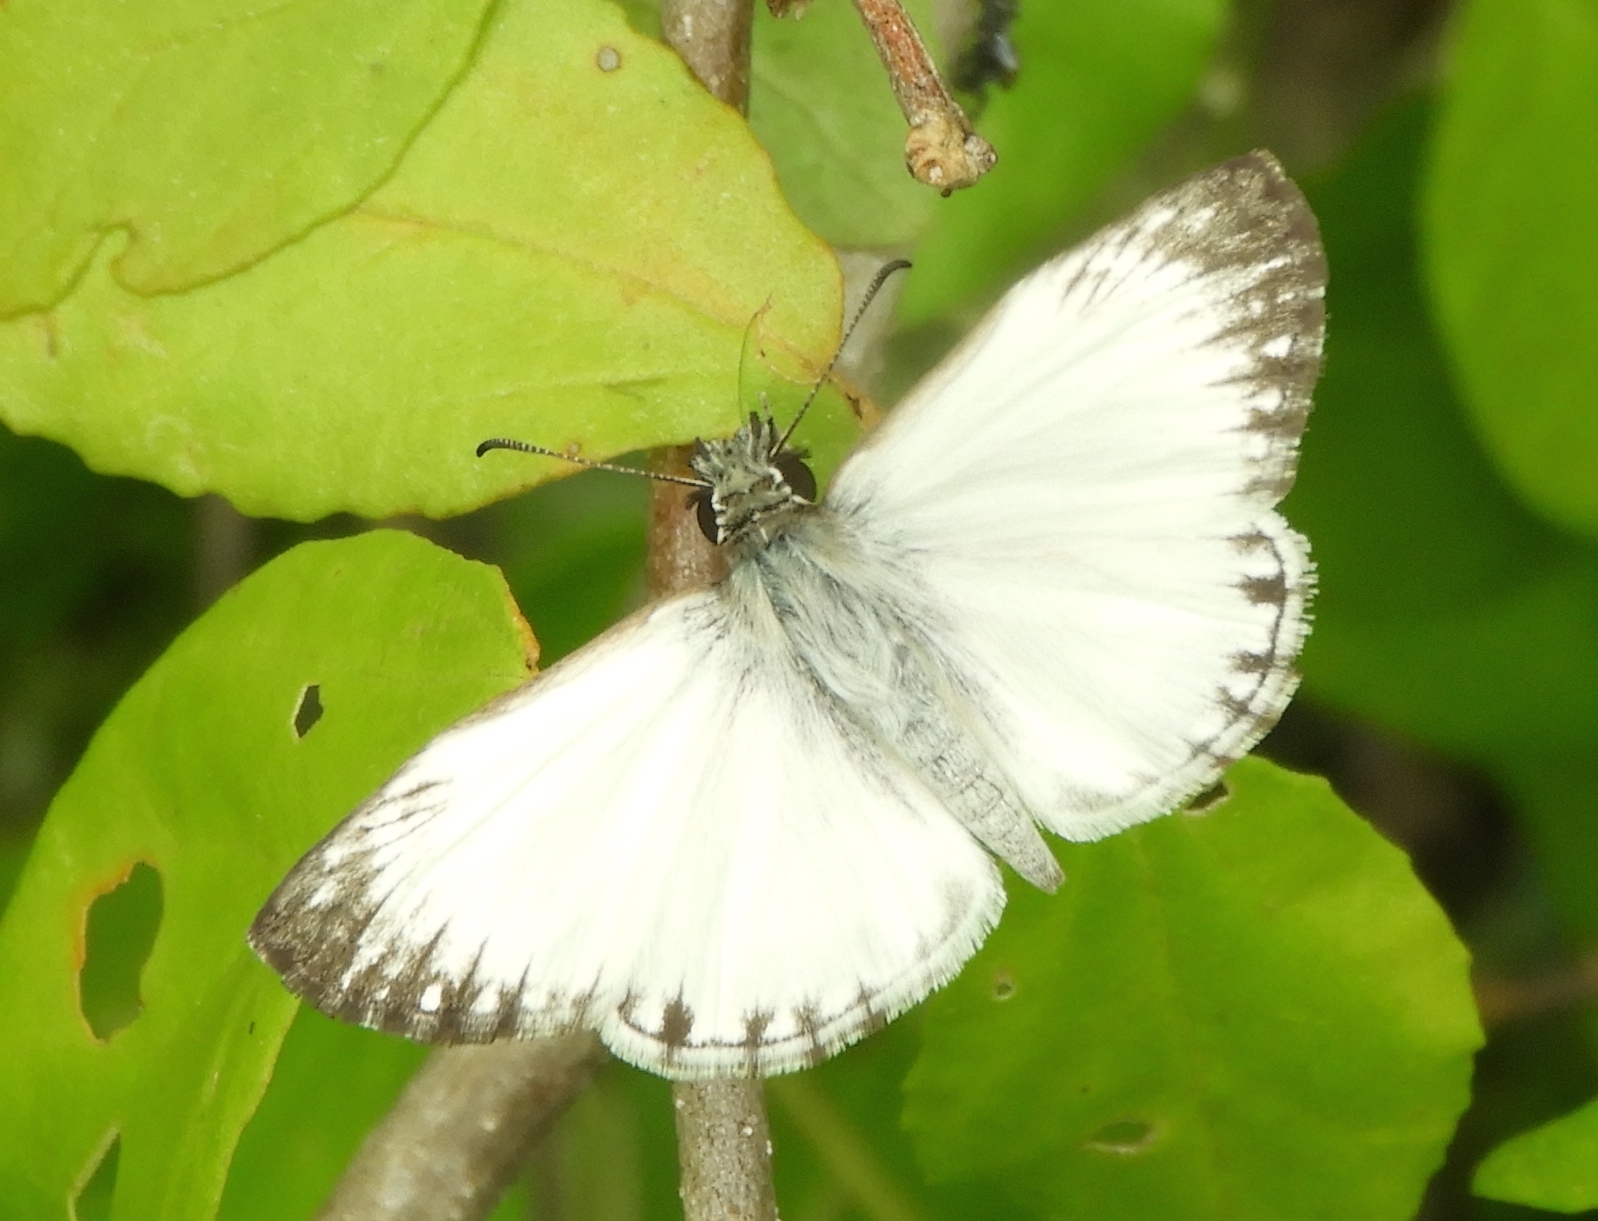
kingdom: Animalia
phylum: Arthropoda
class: Insecta
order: Lepidoptera
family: Hesperiidae
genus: Heliopetes
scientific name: Heliopetes macaira
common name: Turk's-cap white-skipper
